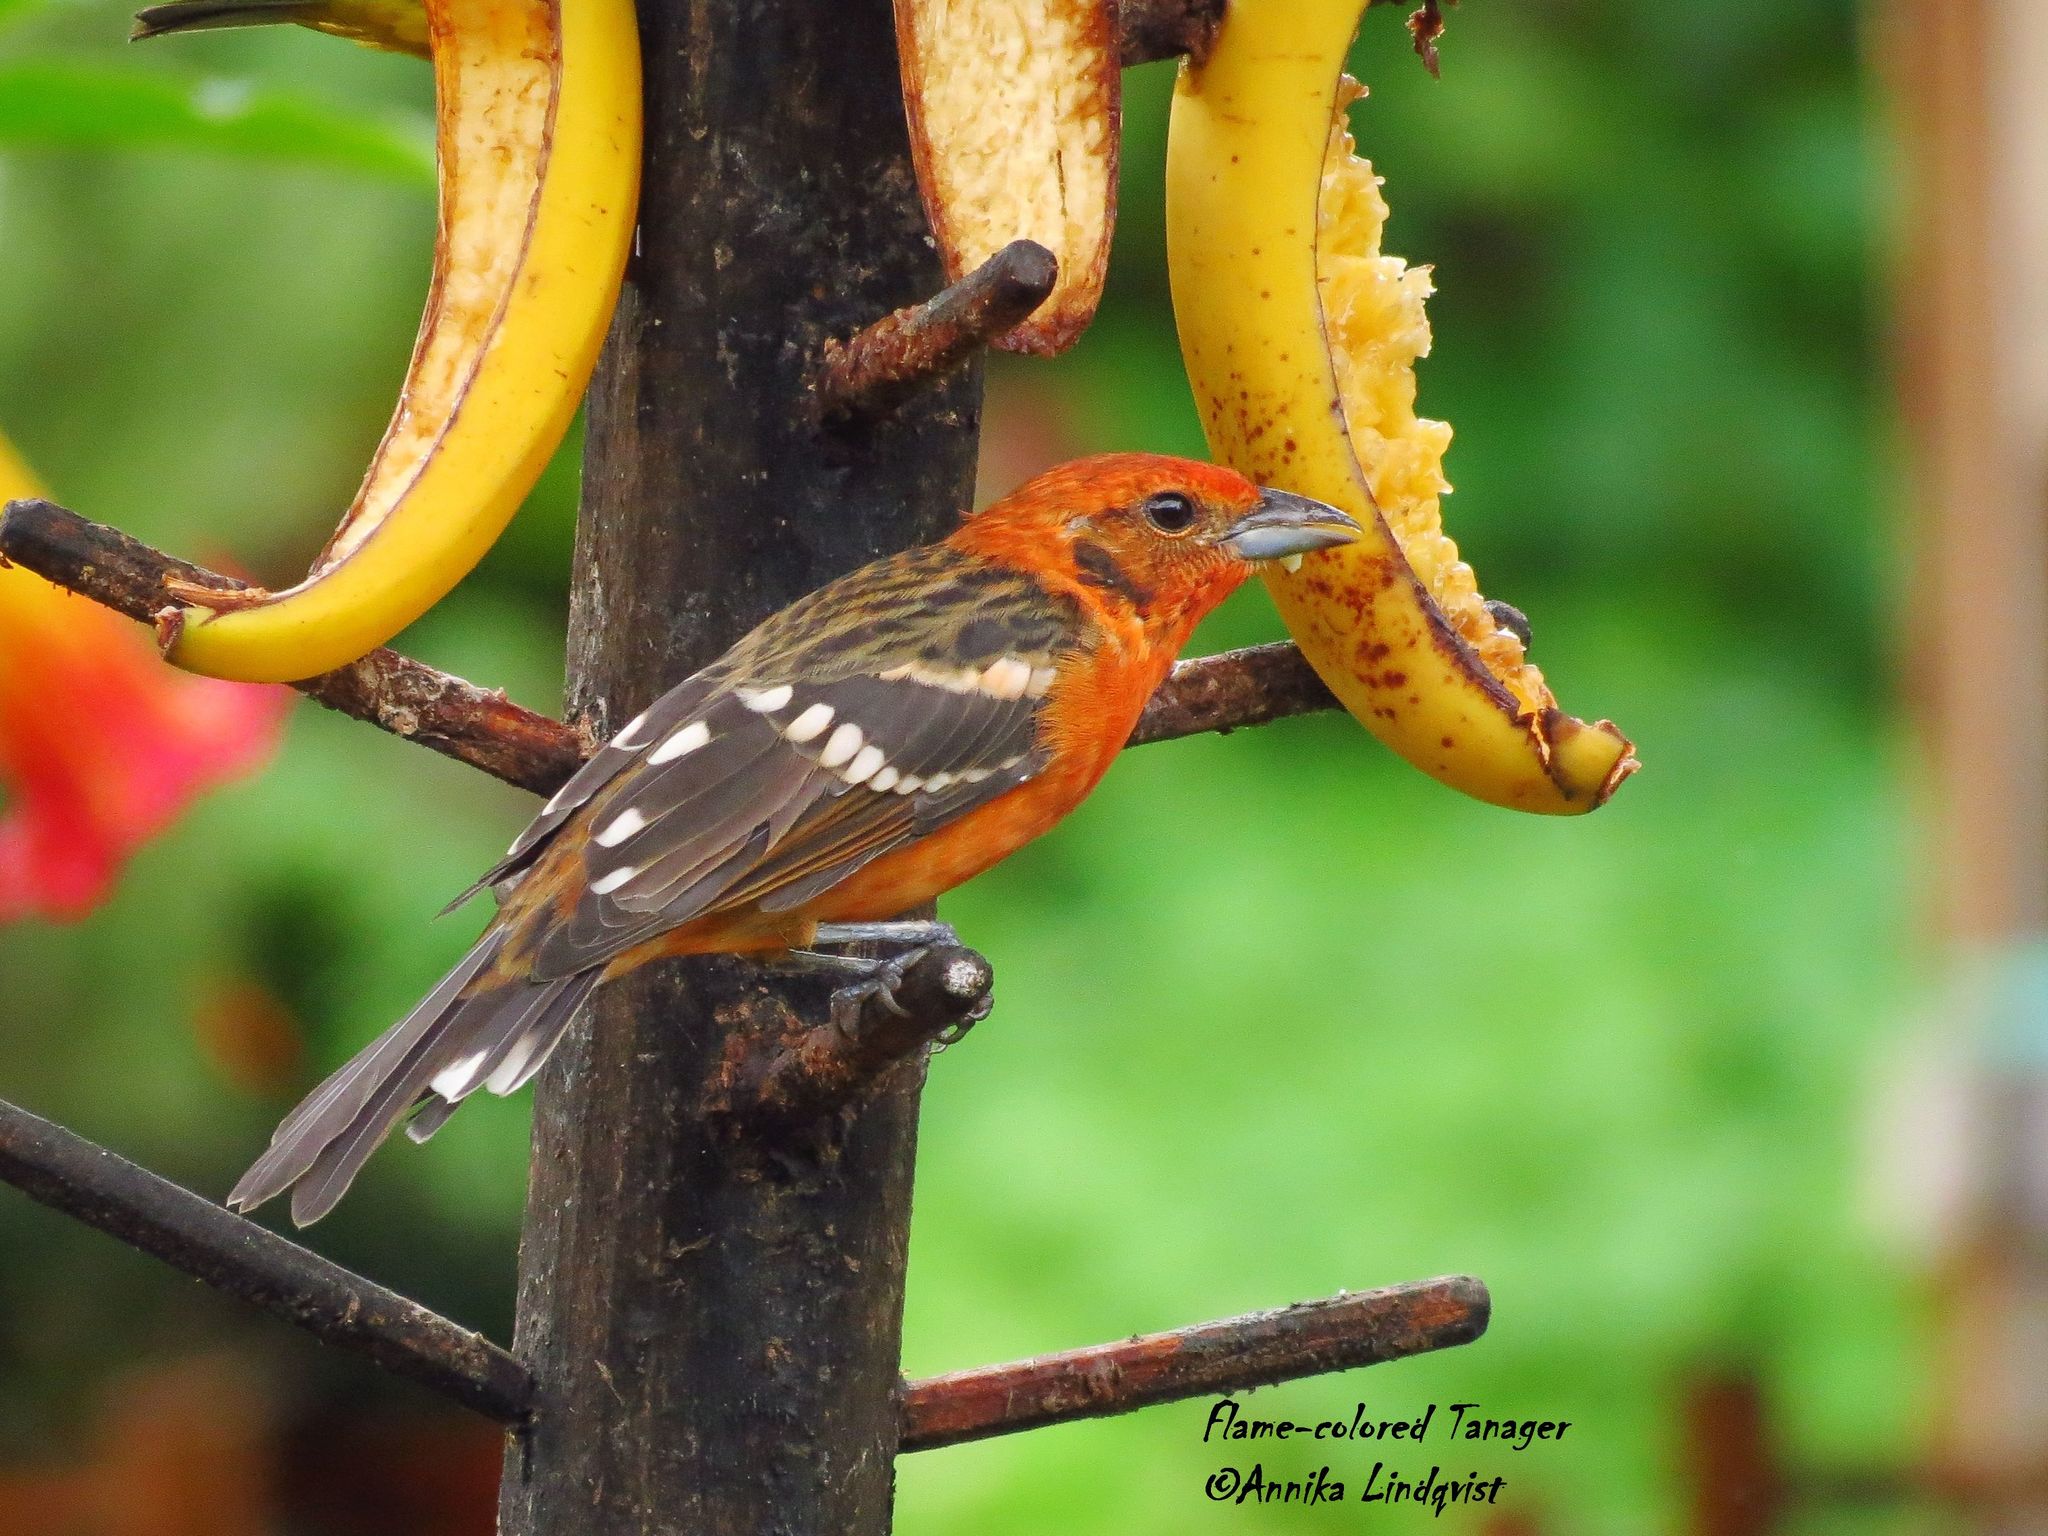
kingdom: Animalia
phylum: Chordata
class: Aves
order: Passeriformes
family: Cardinalidae
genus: Piranga
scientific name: Piranga bidentata
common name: Flame-colored tanager
